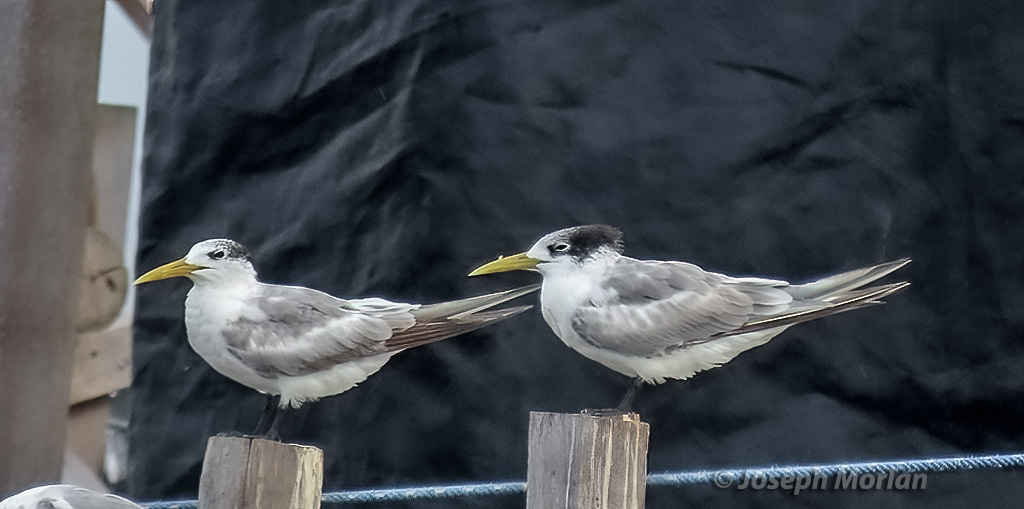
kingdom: Animalia
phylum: Chordata
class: Aves
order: Charadriiformes
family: Laridae
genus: Thalasseus
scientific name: Thalasseus bergii
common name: Greater crested tern
